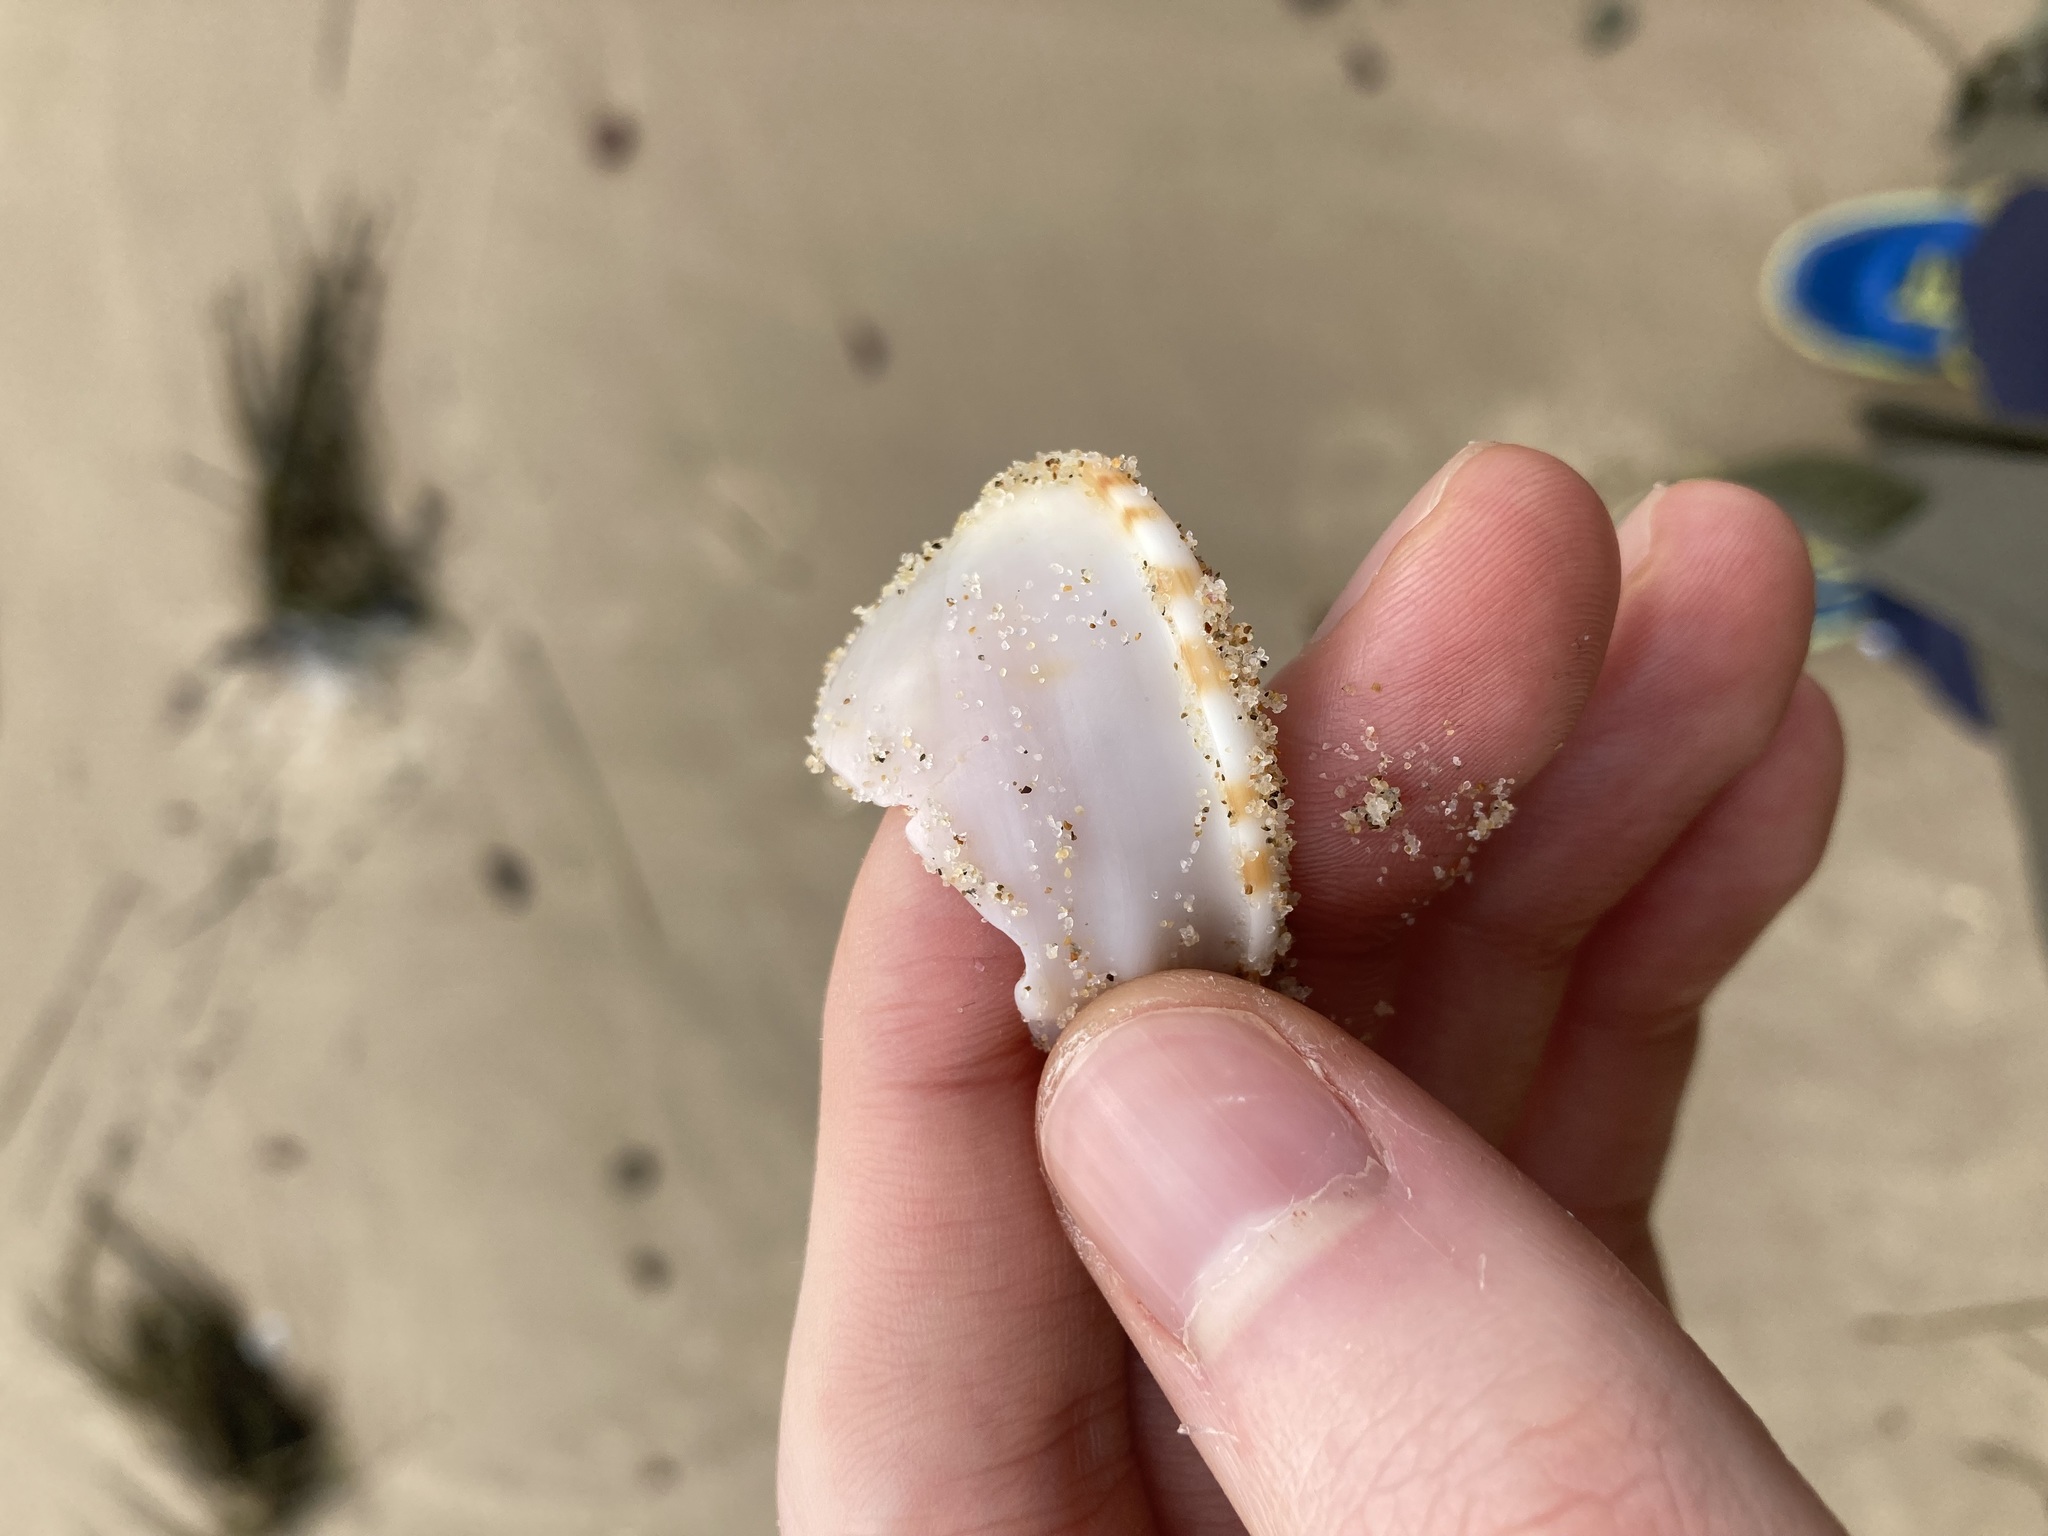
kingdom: Animalia
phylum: Mollusca
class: Gastropoda
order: Littorinimorpha
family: Cassidae
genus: Semicassis
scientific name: Semicassis labiata
